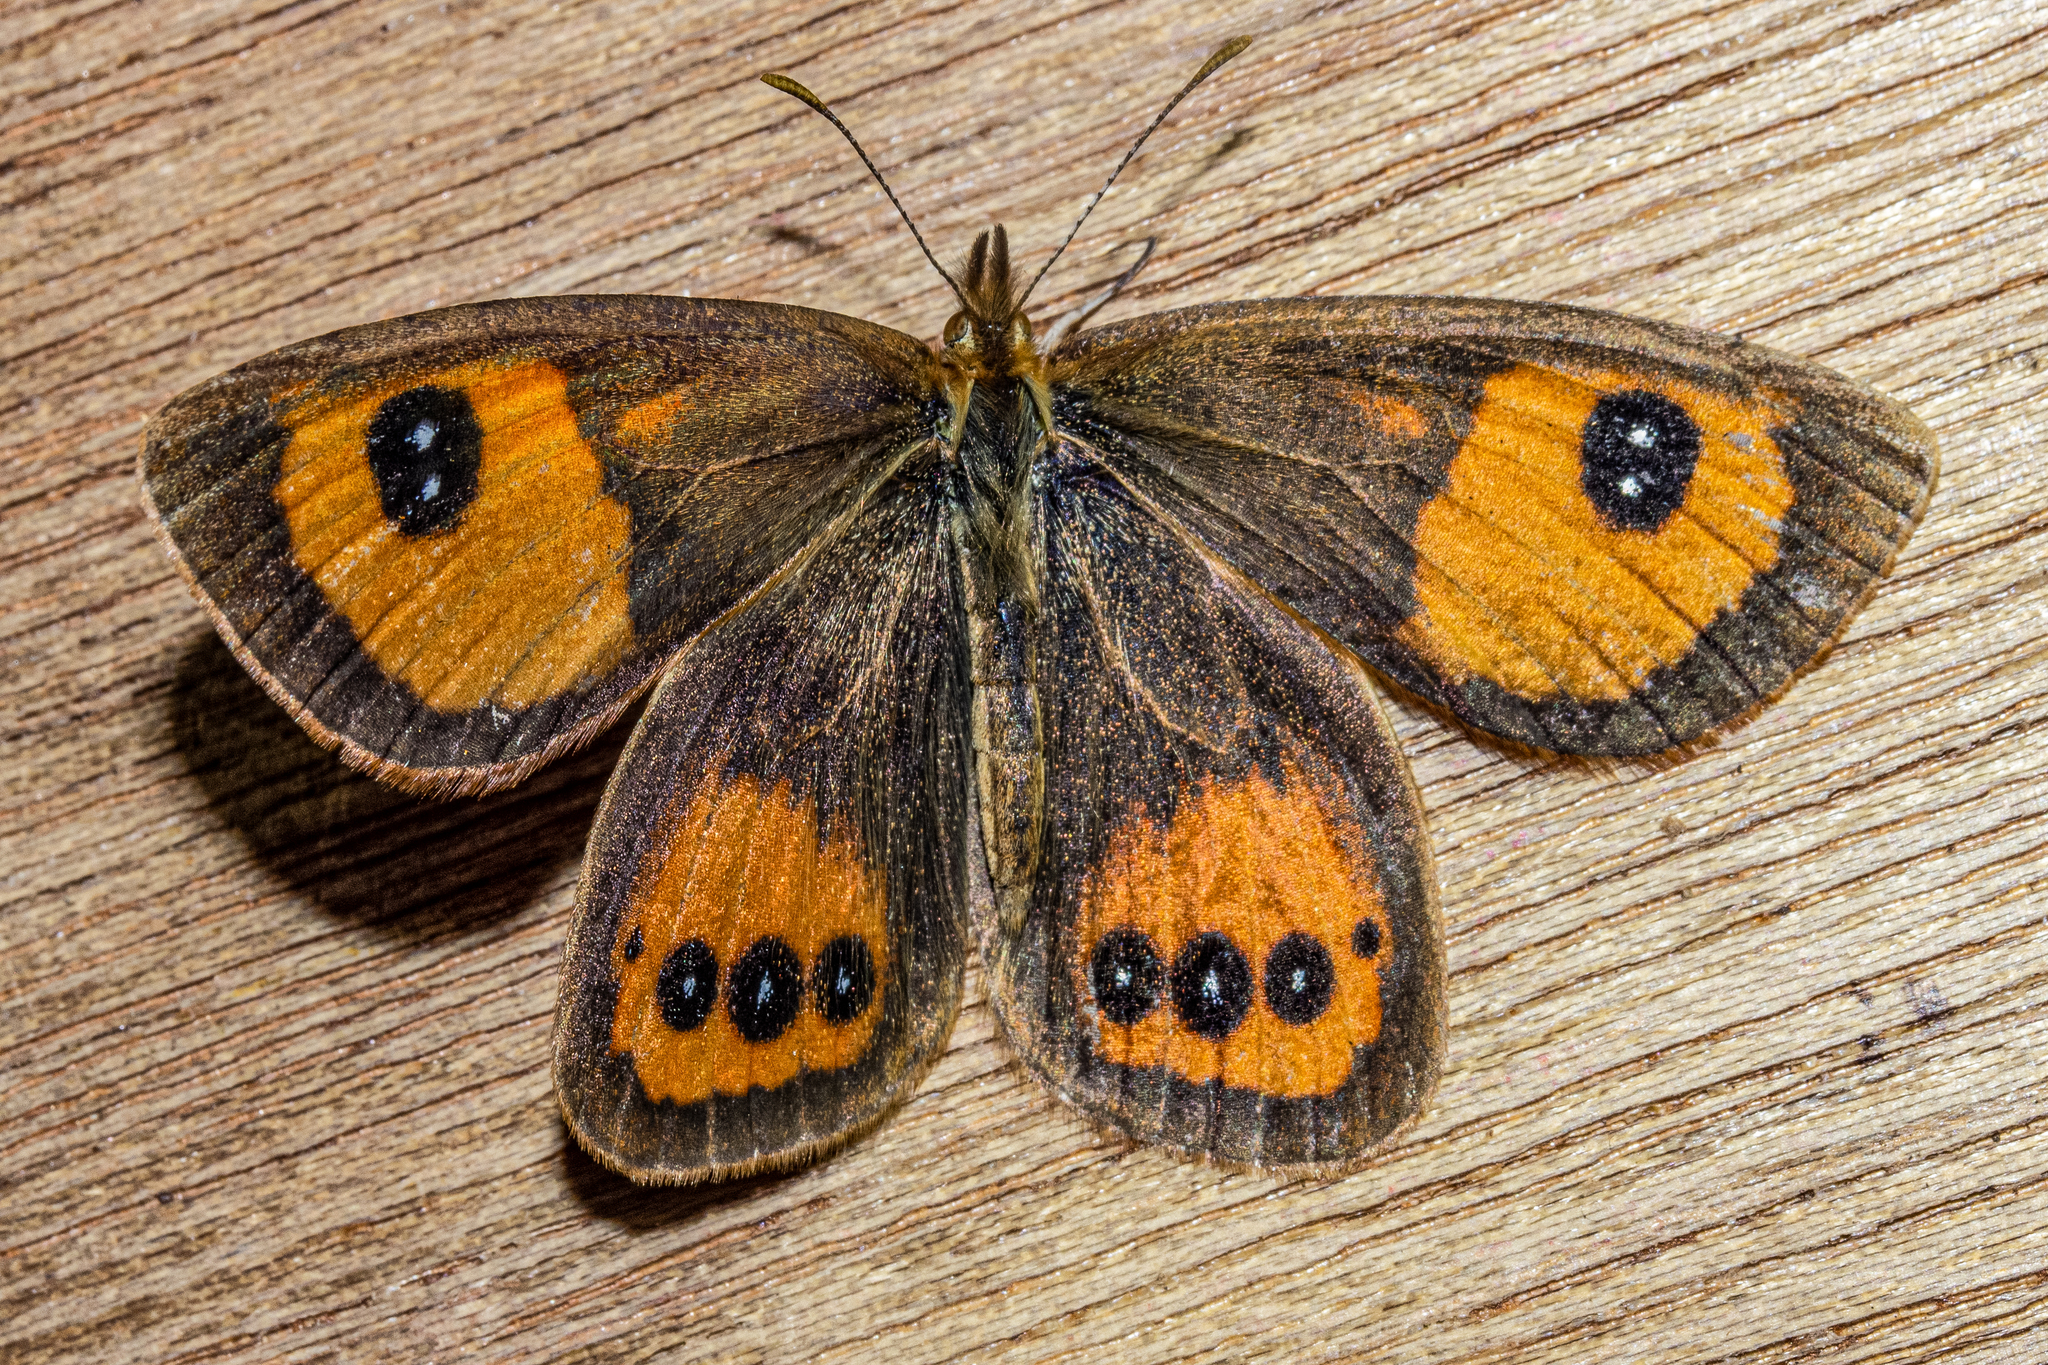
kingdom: Animalia
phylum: Arthropoda
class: Insecta
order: Lepidoptera
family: Nymphalidae
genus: Argyrophenga
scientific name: Argyrophenga antipodum
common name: Common tussock butterfly
